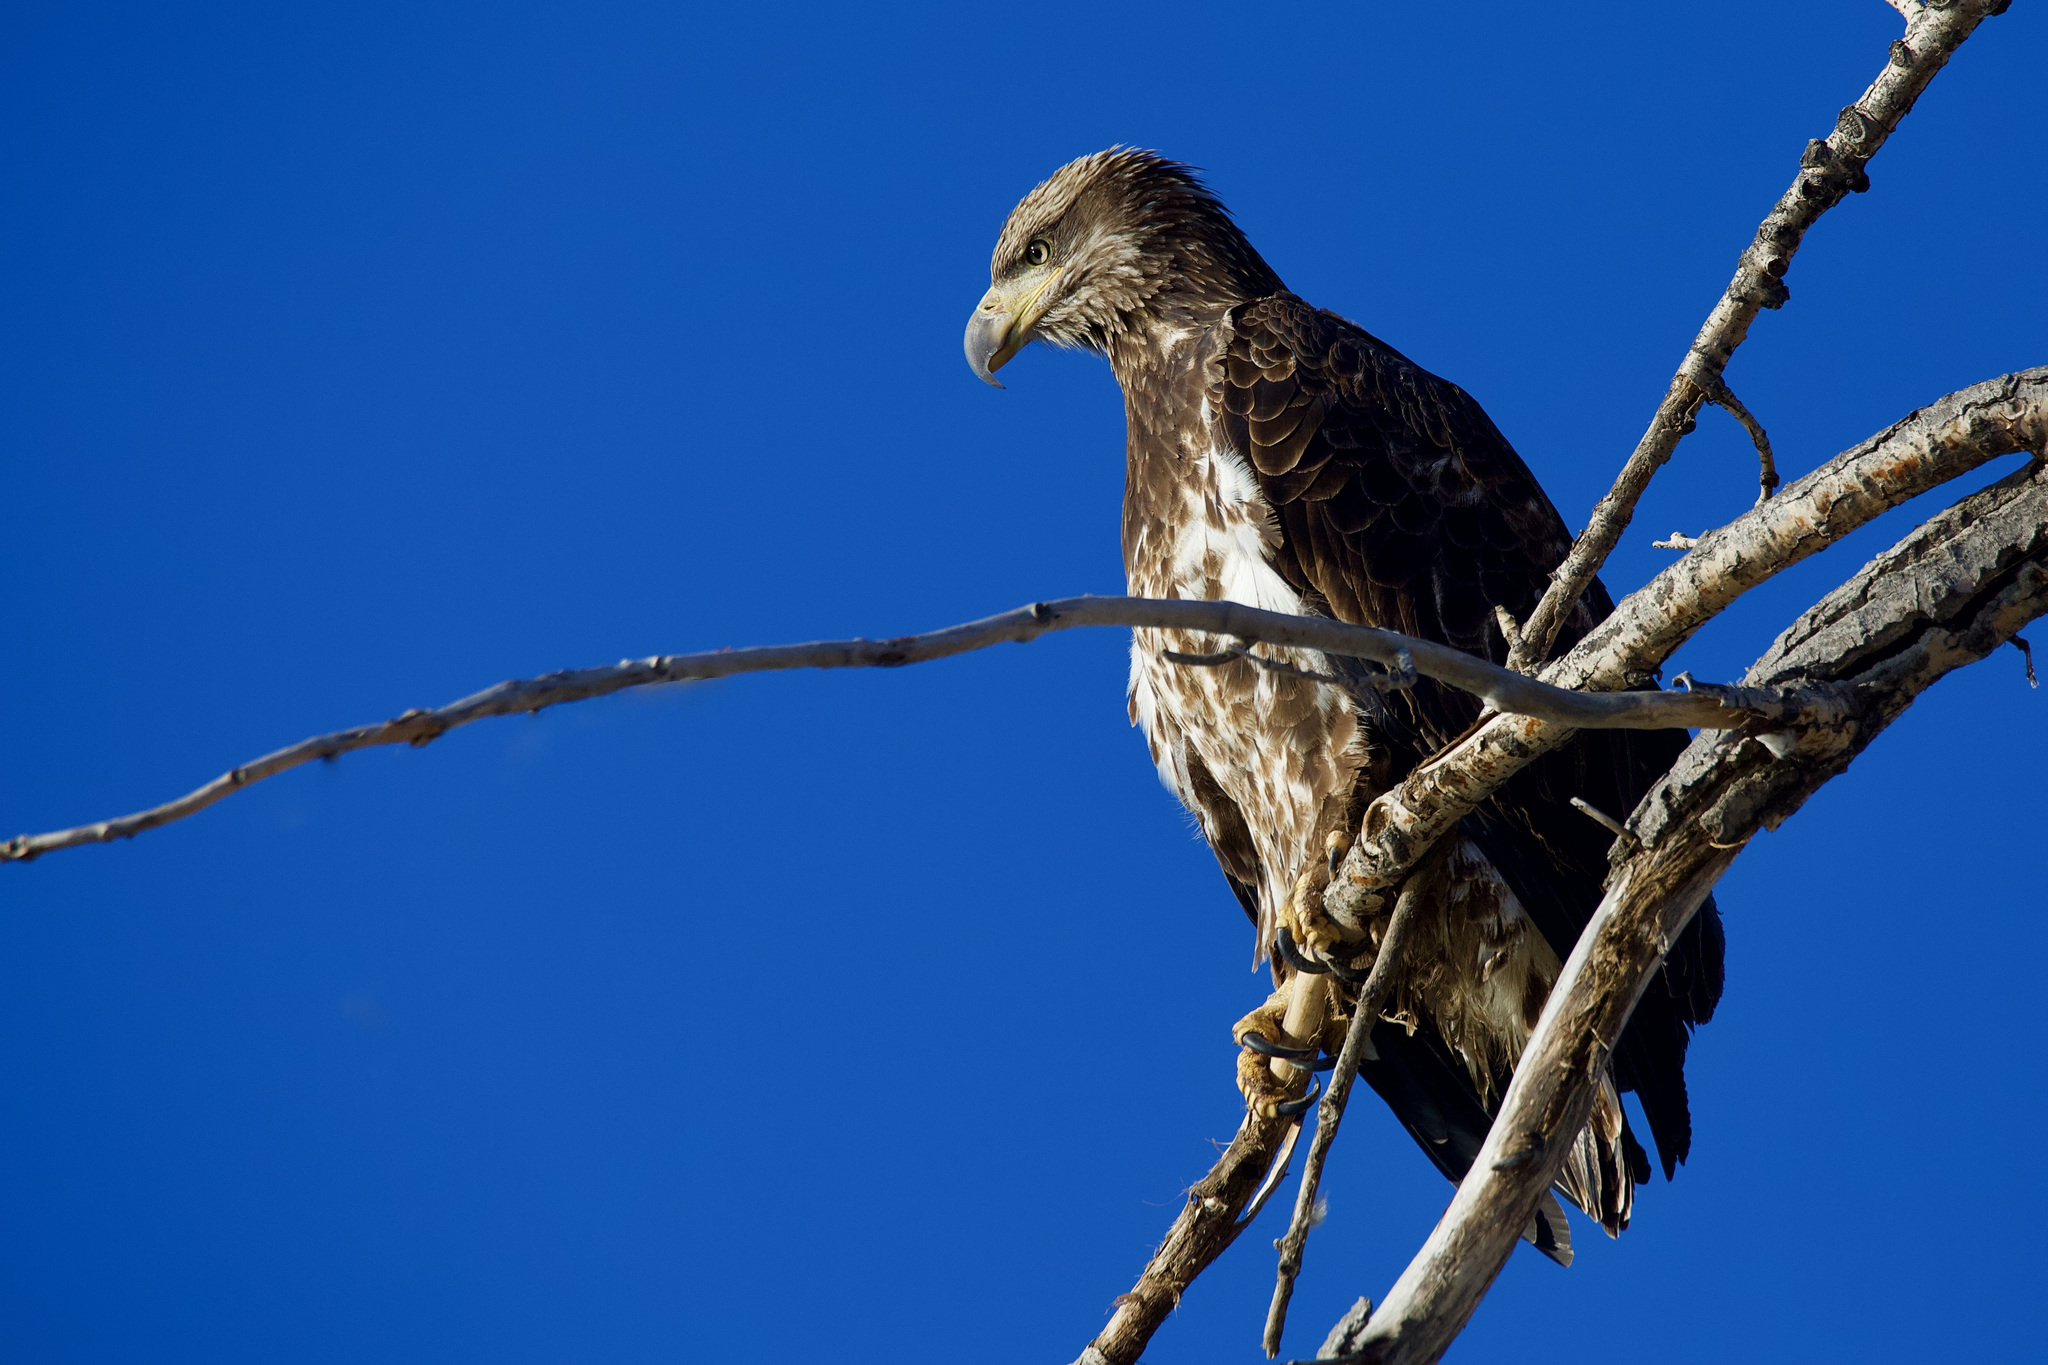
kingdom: Animalia
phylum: Chordata
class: Aves
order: Accipitriformes
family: Accipitridae
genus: Haliaeetus
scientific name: Haliaeetus leucocephalus
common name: Bald eagle
